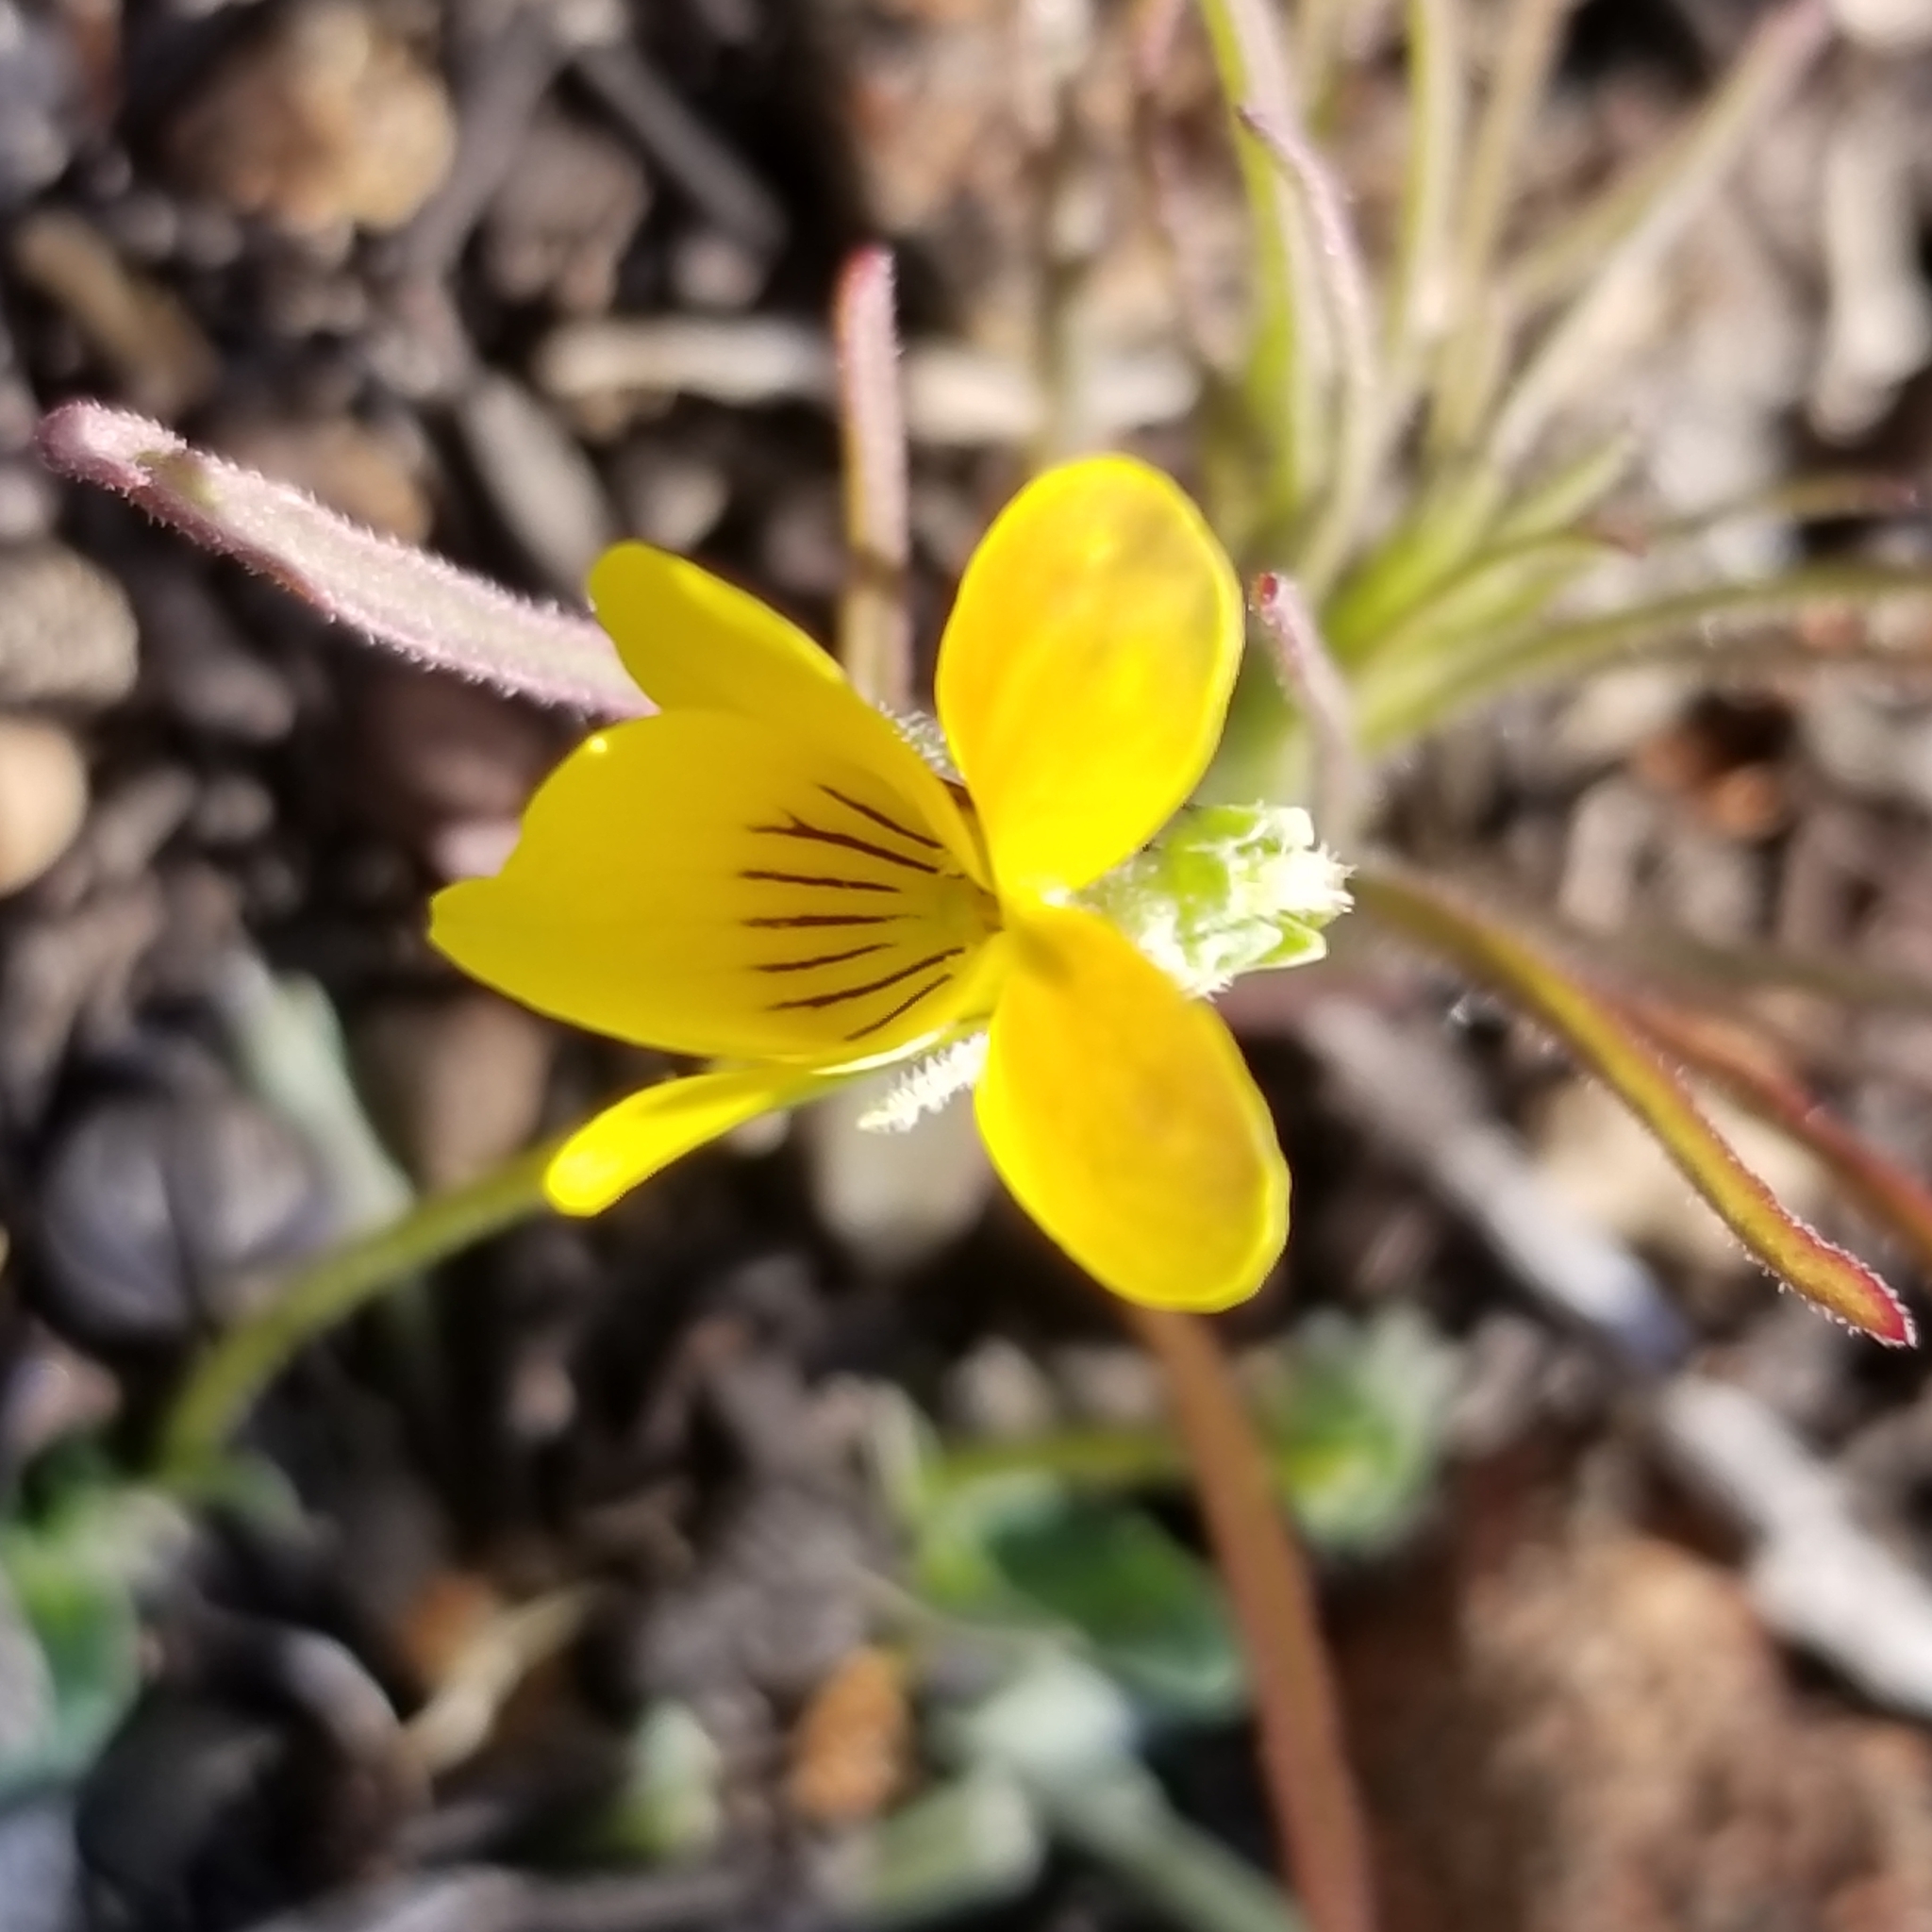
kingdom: Plantae
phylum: Tracheophyta
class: Magnoliopsida
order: Malpighiales
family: Violaceae
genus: Viola
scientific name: Viola purpurea
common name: Pine violet
